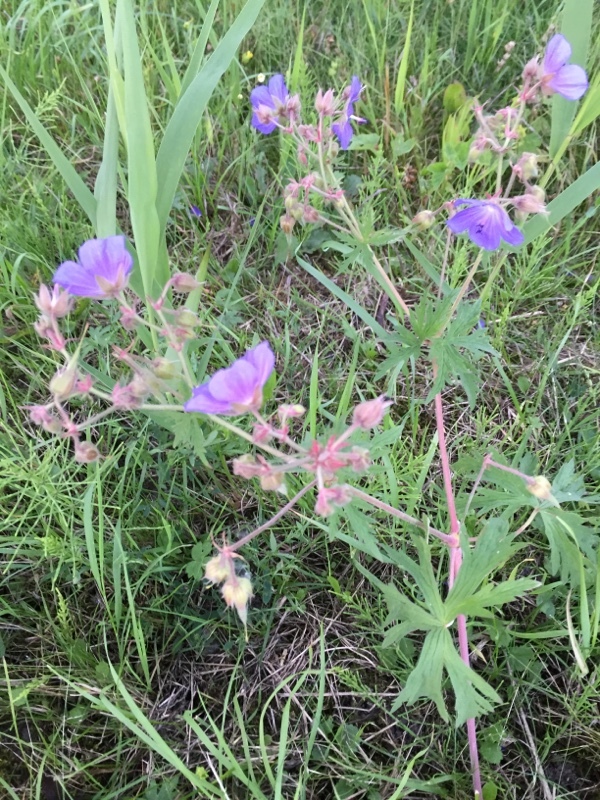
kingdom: Plantae
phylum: Tracheophyta
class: Magnoliopsida
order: Geraniales
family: Geraniaceae
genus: Geranium
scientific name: Geranium pratense
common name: Meadow crane's-bill
